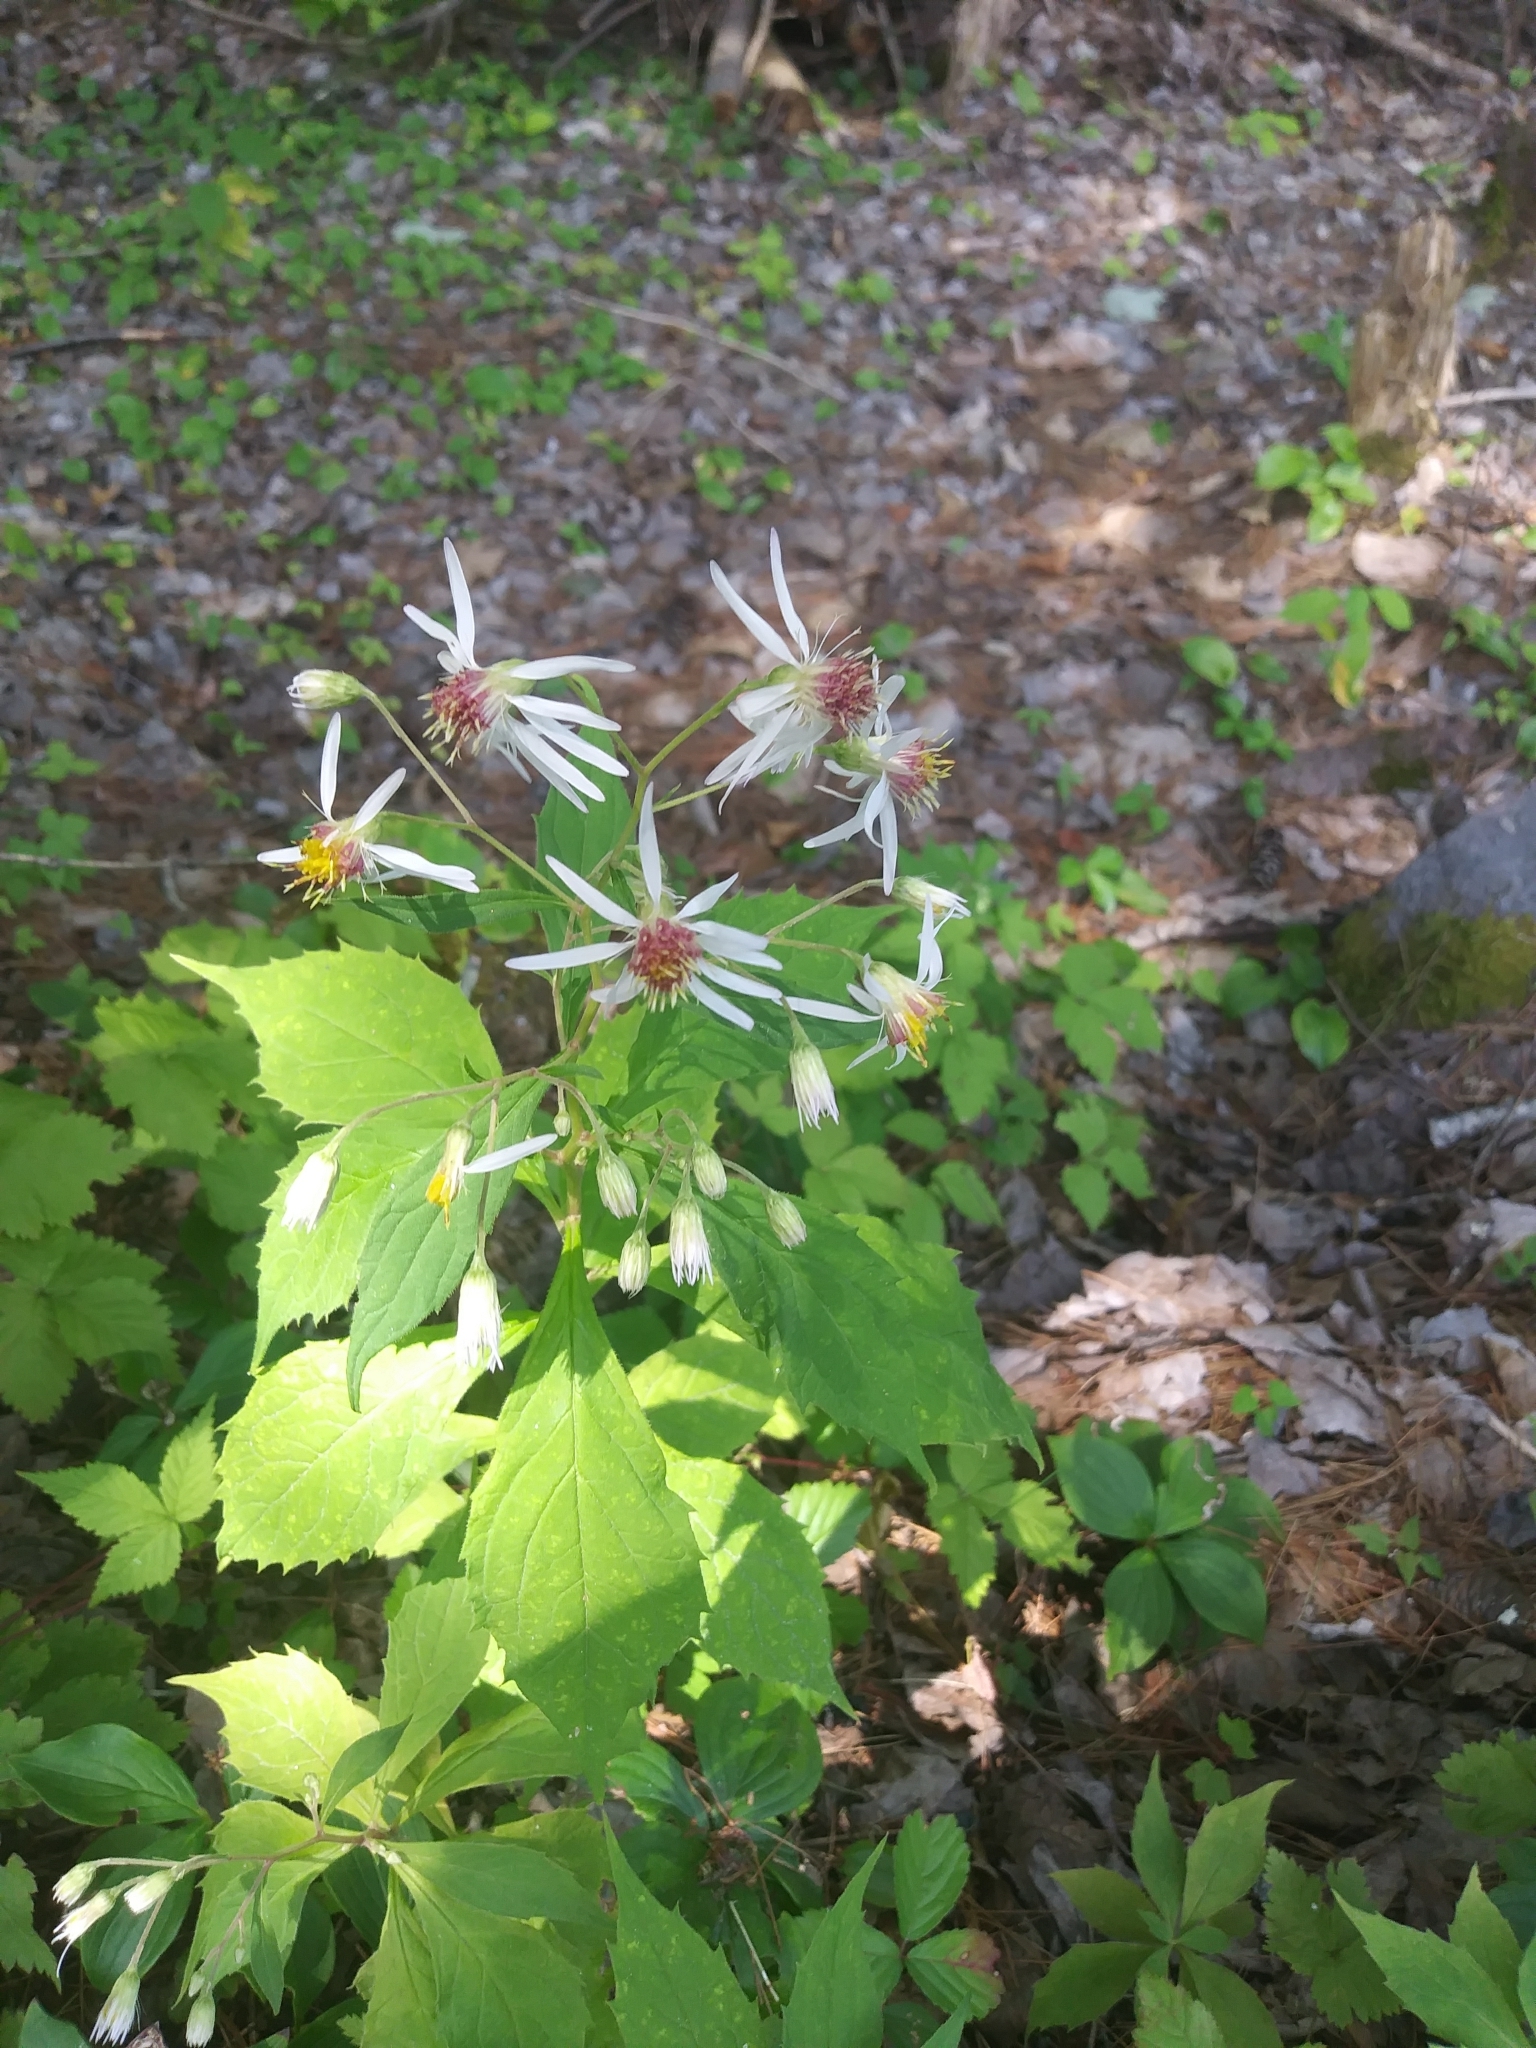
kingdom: Plantae
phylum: Tracheophyta
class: Magnoliopsida
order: Asterales
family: Asteraceae
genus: Oclemena
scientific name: Oclemena acuminata
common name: Mountain aster
